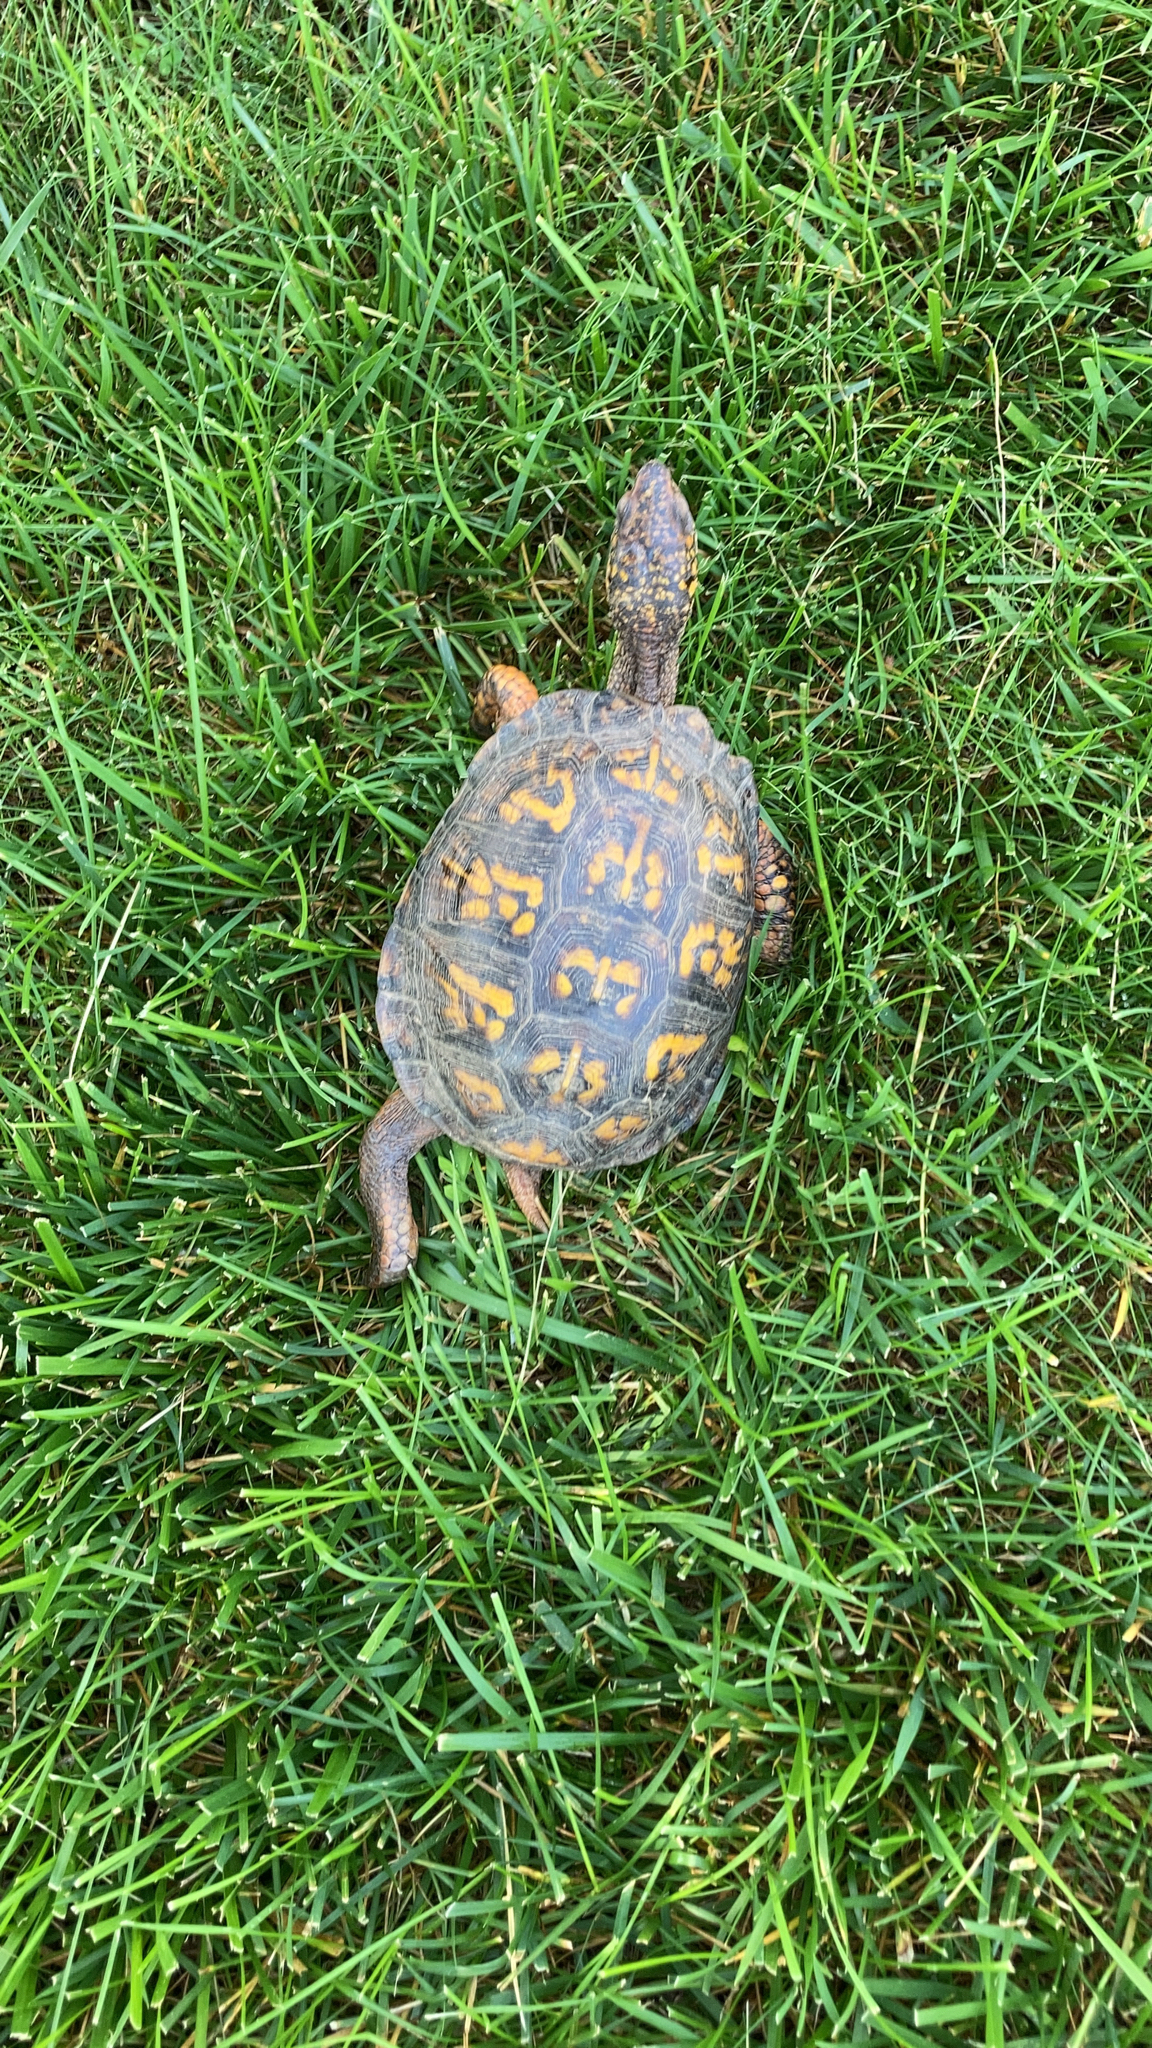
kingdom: Animalia
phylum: Chordata
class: Testudines
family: Emydidae
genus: Terrapene
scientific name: Terrapene carolina
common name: Common box turtle
